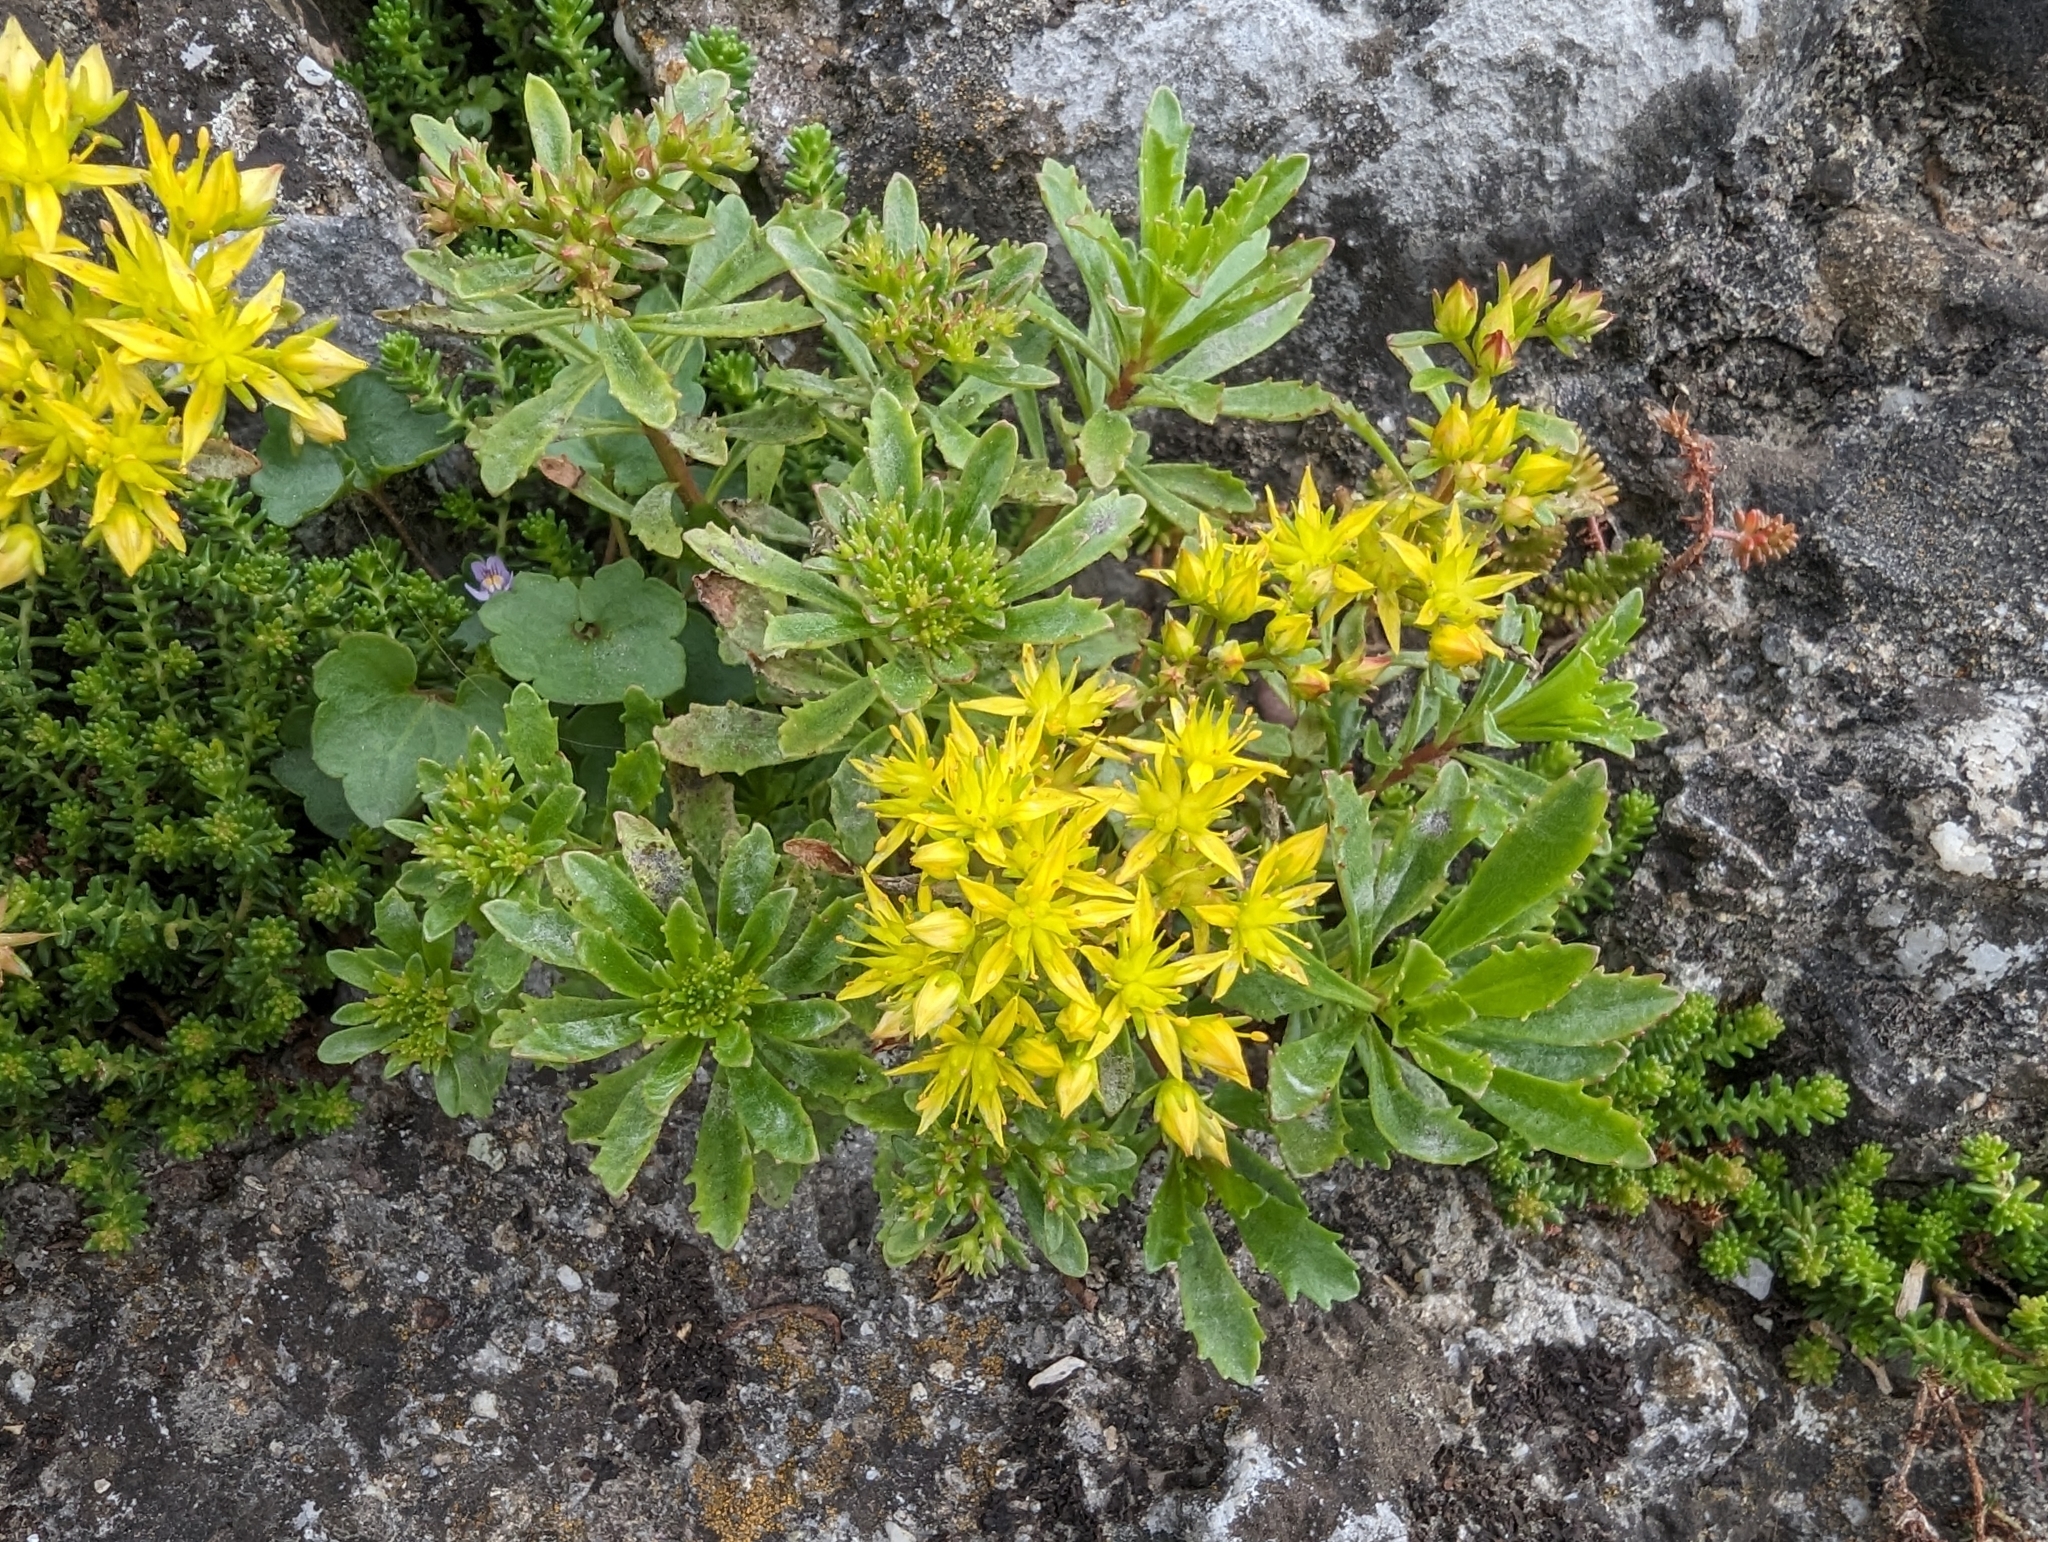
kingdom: Plantae
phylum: Tracheophyta
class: Magnoliopsida
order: Saxifragales
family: Crassulaceae
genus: Phedimus
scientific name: Phedimus hybridus
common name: Hybrid stonecrop
